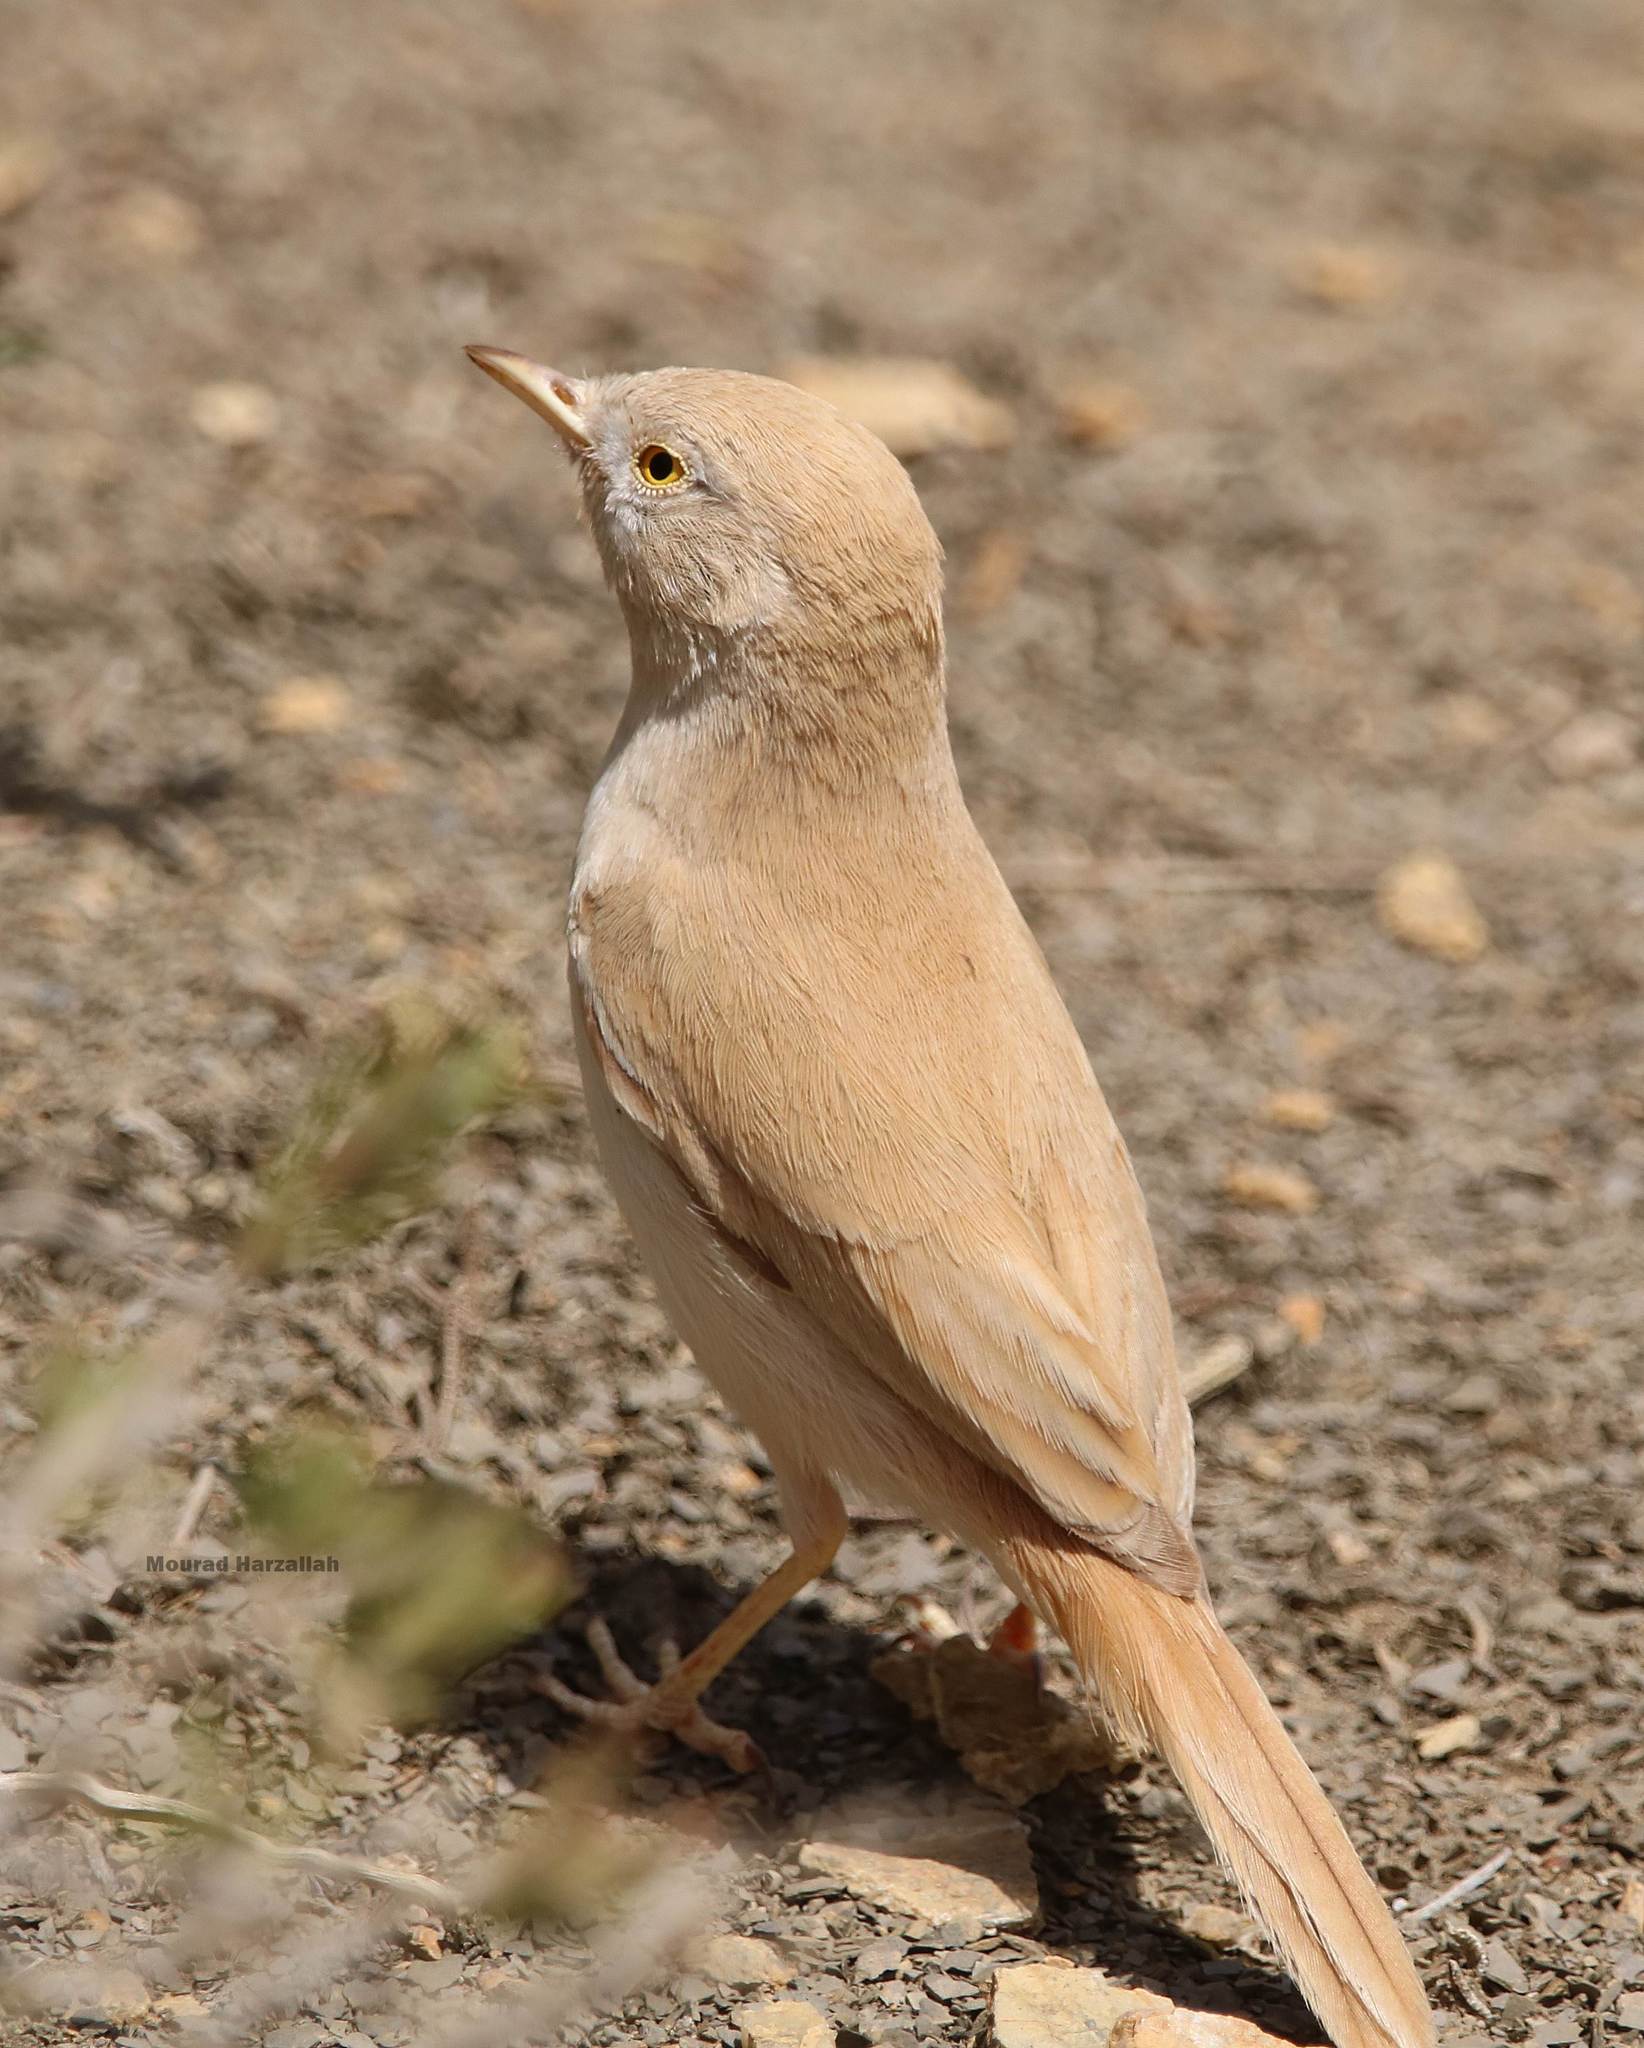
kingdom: Animalia
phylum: Chordata
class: Aves
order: Passeriformes
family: Sylviidae
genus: Sylvia
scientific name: Sylvia deserti
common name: African desert warbler
